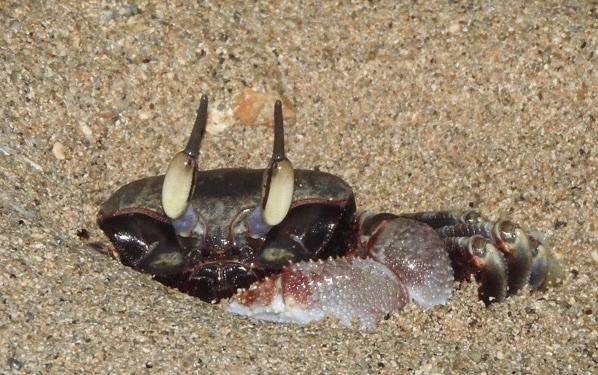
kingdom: Animalia
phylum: Arthropoda
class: Malacostraca
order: Decapoda
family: Ocypodidae
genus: Ocypode
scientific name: Ocypode ceratophthalmus
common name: Indo-pacific ghost crab
